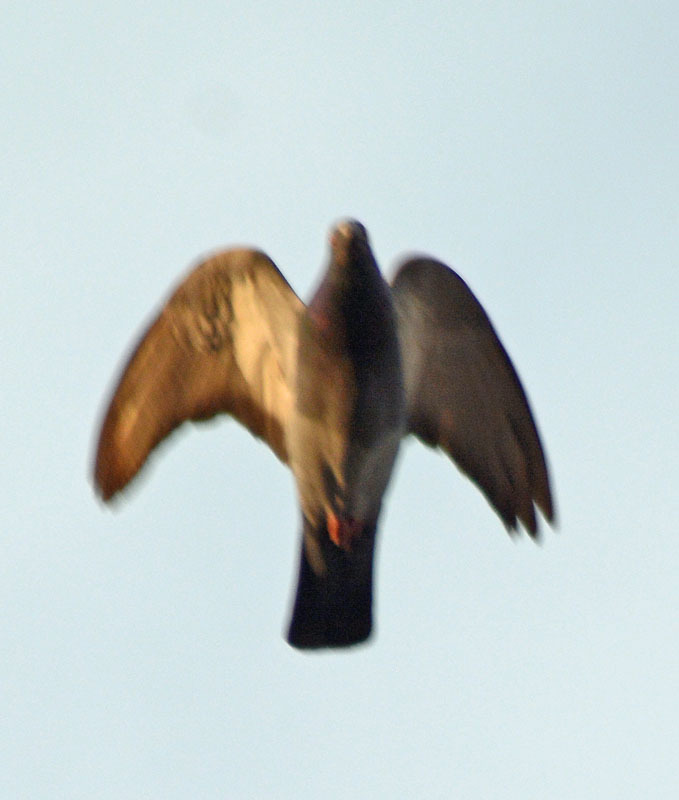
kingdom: Animalia
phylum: Chordata
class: Aves
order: Columbiformes
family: Columbidae
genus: Columba
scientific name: Columba livia
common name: Rock pigeon
